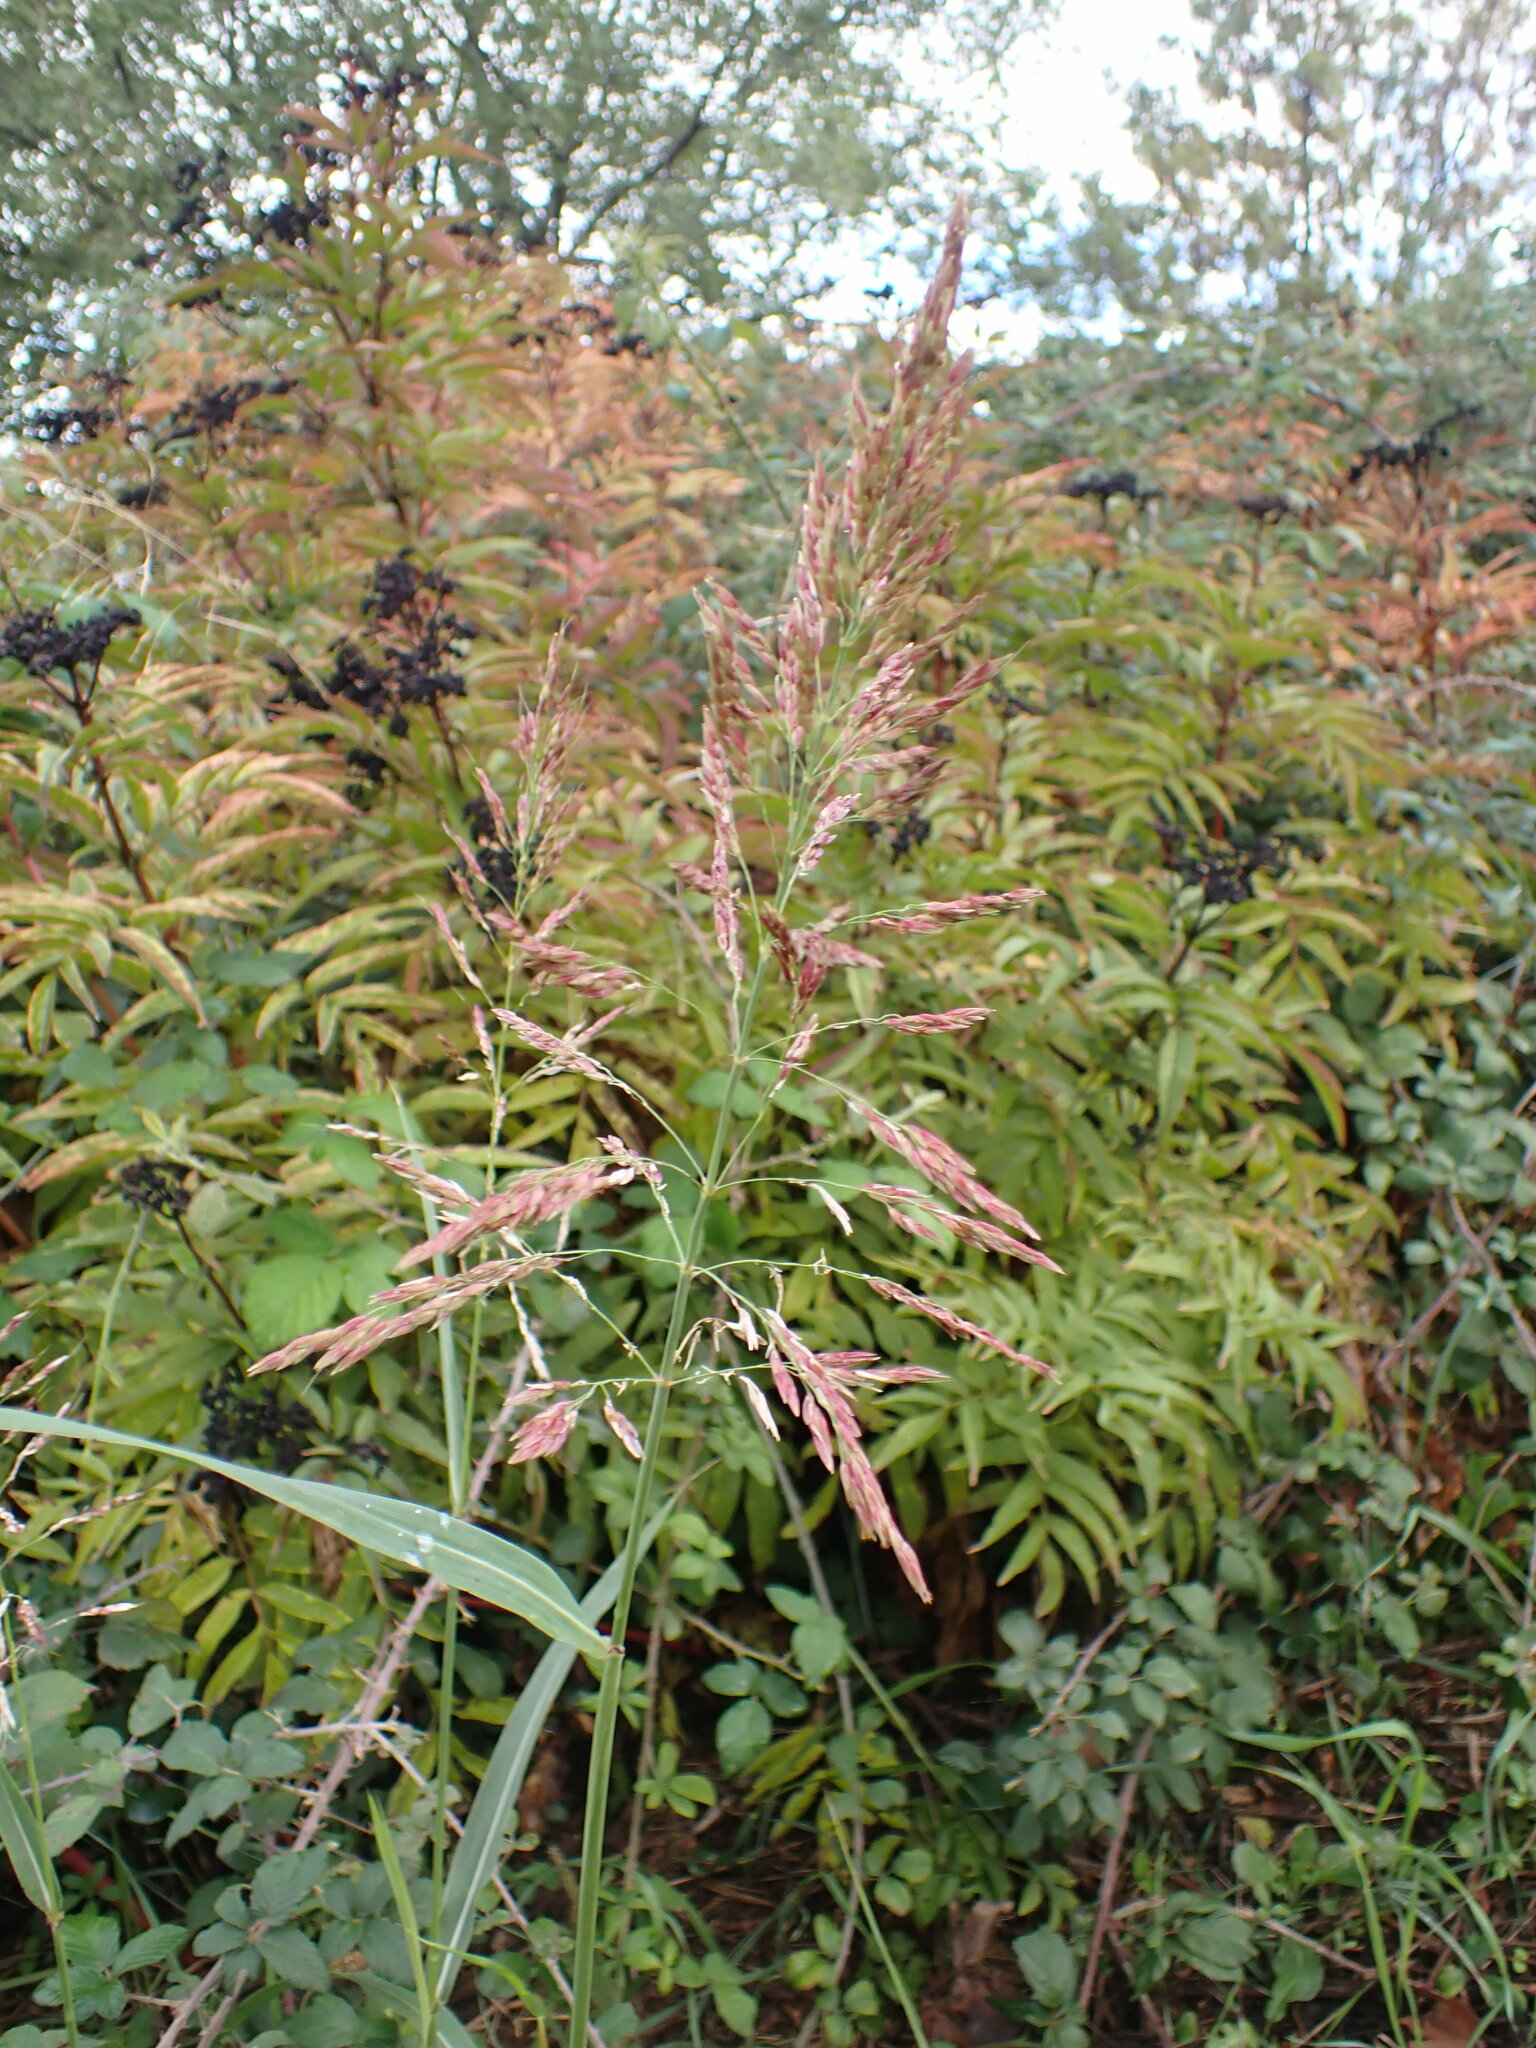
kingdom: Plantae
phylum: Tracheophyta
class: Liliopsida
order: Poales
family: Poaceae
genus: Sorghum
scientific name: Sorghum halepense
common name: Johnson-grass
